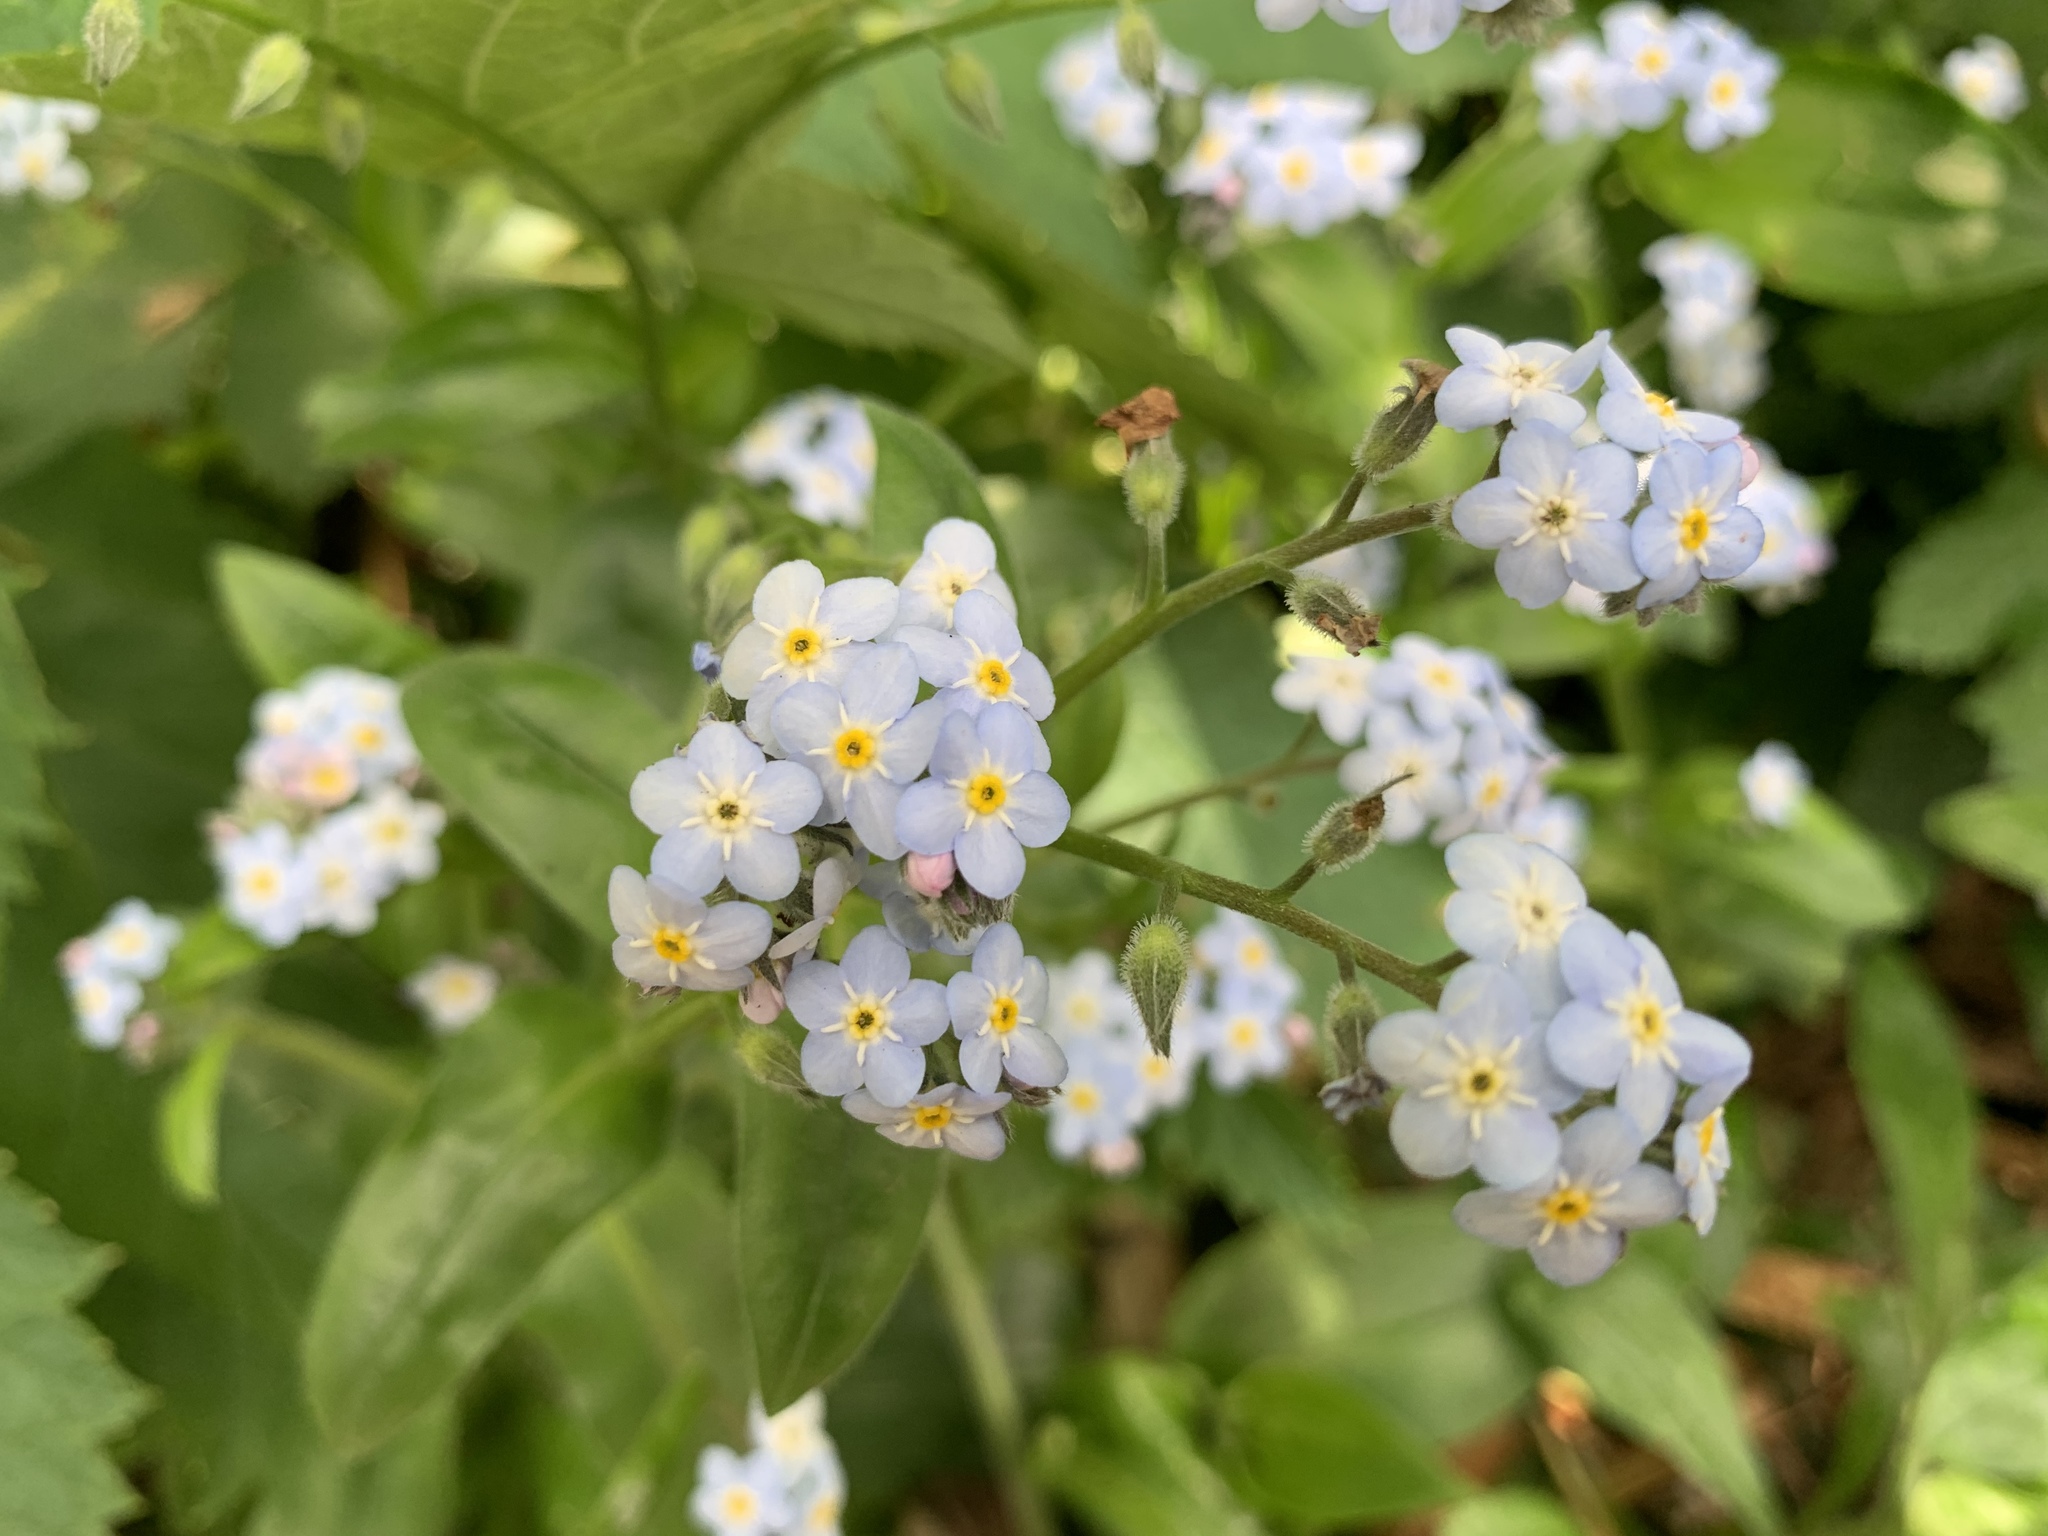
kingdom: Plantae
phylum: Tracheophyta
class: Magnoliopsida
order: Boraginales
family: Boraginaceae
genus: Myosotis
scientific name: Myosotis latifolia
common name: Broadleaf forget-me-not
